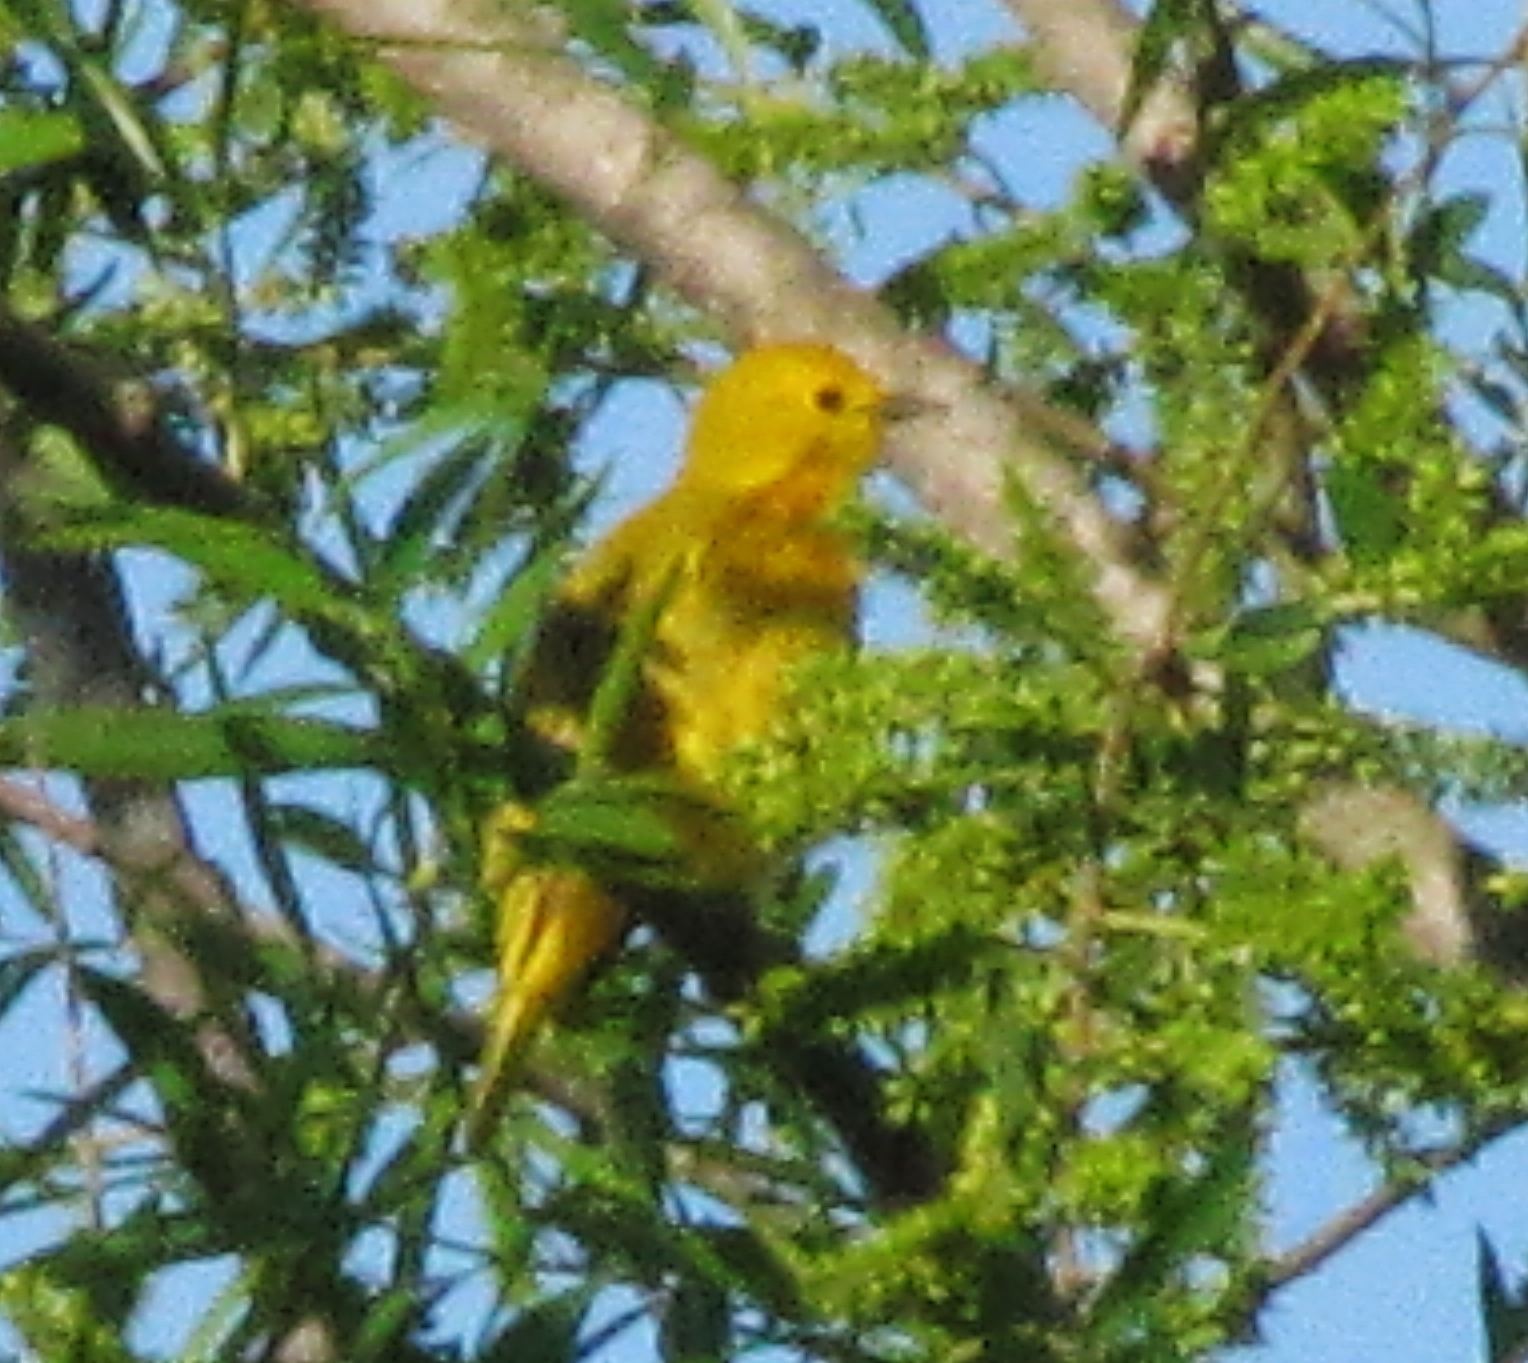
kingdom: Animalia
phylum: Chordata
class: Aves
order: Passeriformes
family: Parulidae
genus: Setophaga
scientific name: Setophaga petechia
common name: Yellow warbler
